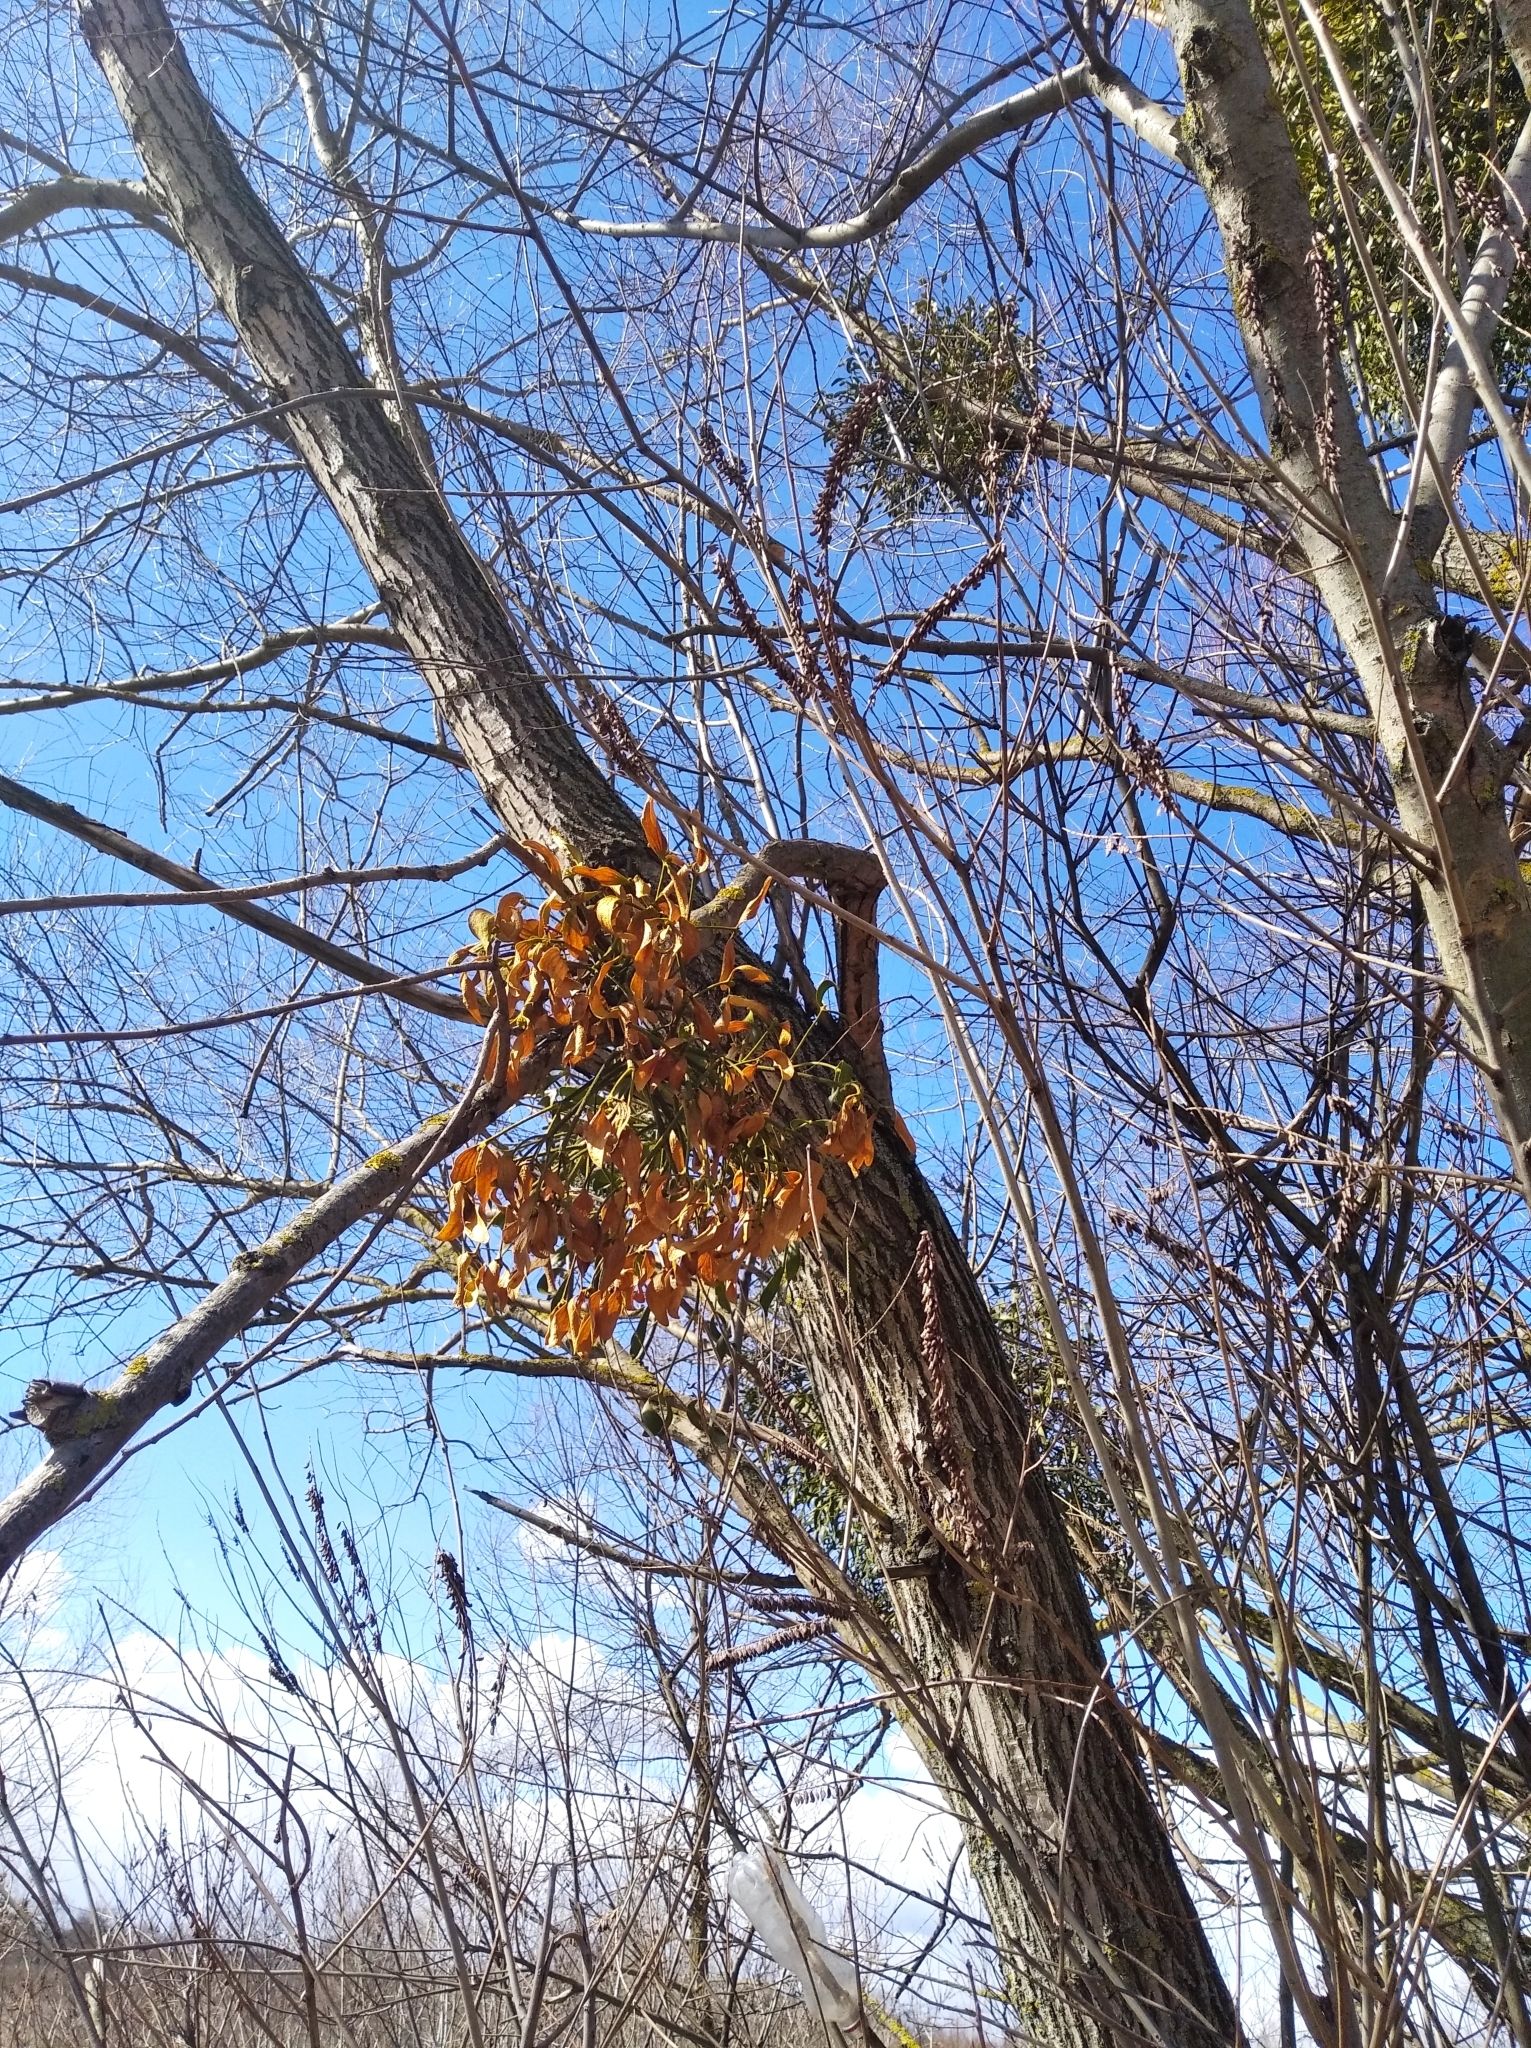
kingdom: Plantae
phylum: Tracheophyta
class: Magnoliopsida
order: Santalales
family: Viscaceae
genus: Viscum
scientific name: Viscum album
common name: Mistletoe
